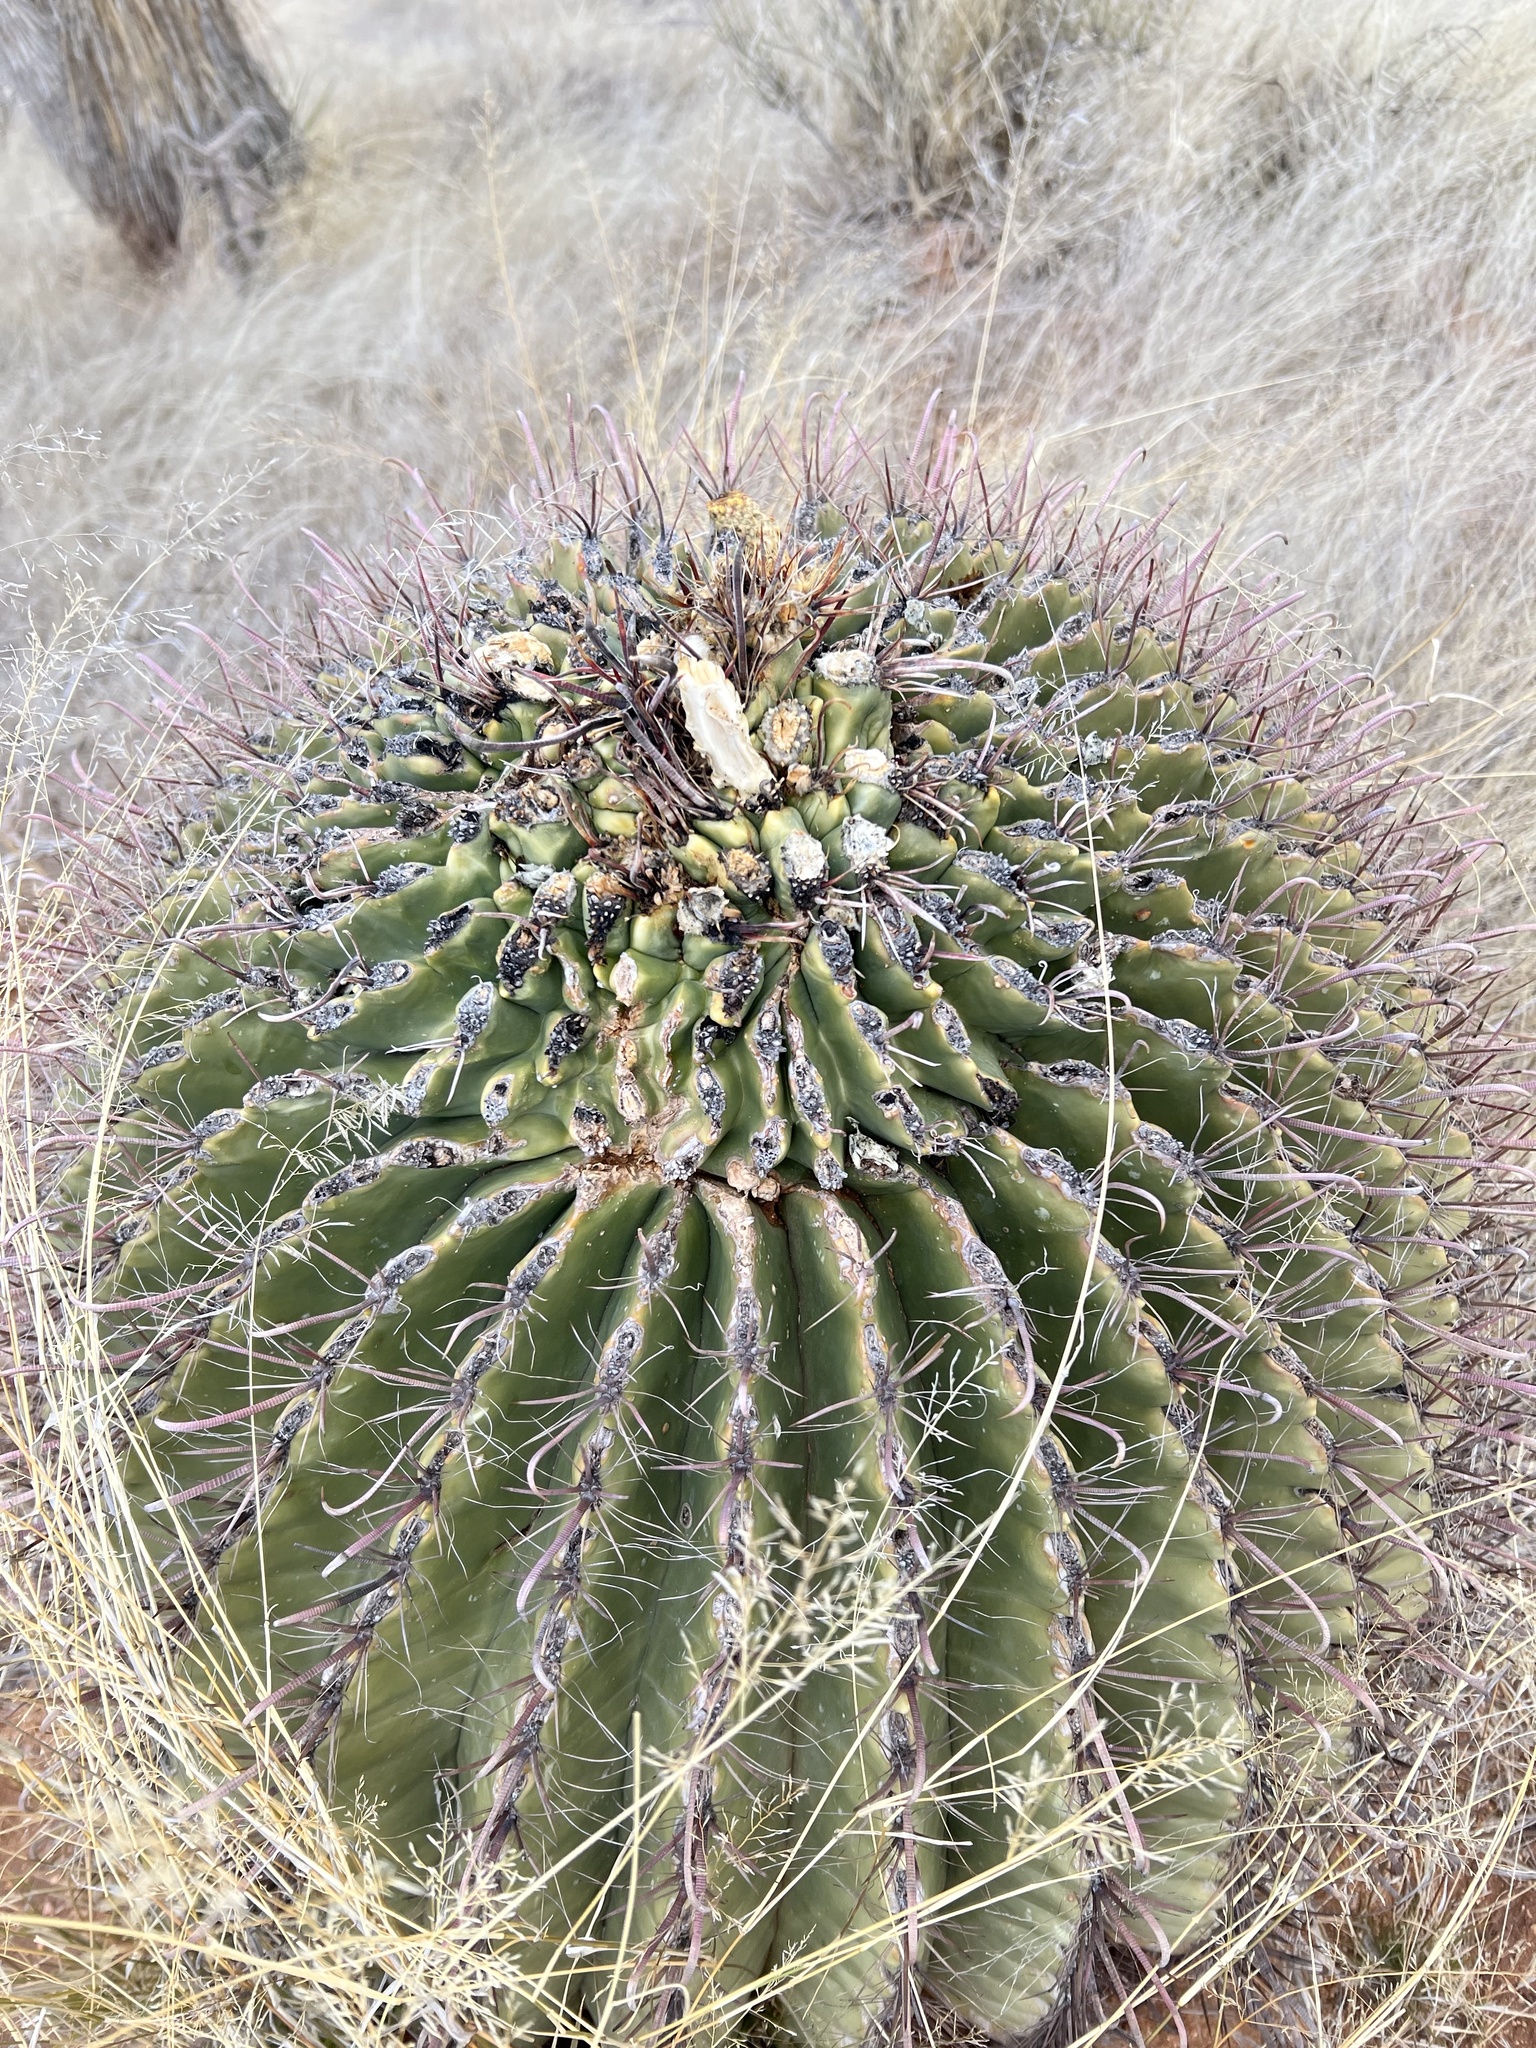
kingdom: Plantae
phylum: Tracheophyta
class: Magnoliopsida
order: Caryophyllales
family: Cactaceae
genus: Ferocactus
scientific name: Ferocactus wislizeni
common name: Candy barrel cactus
